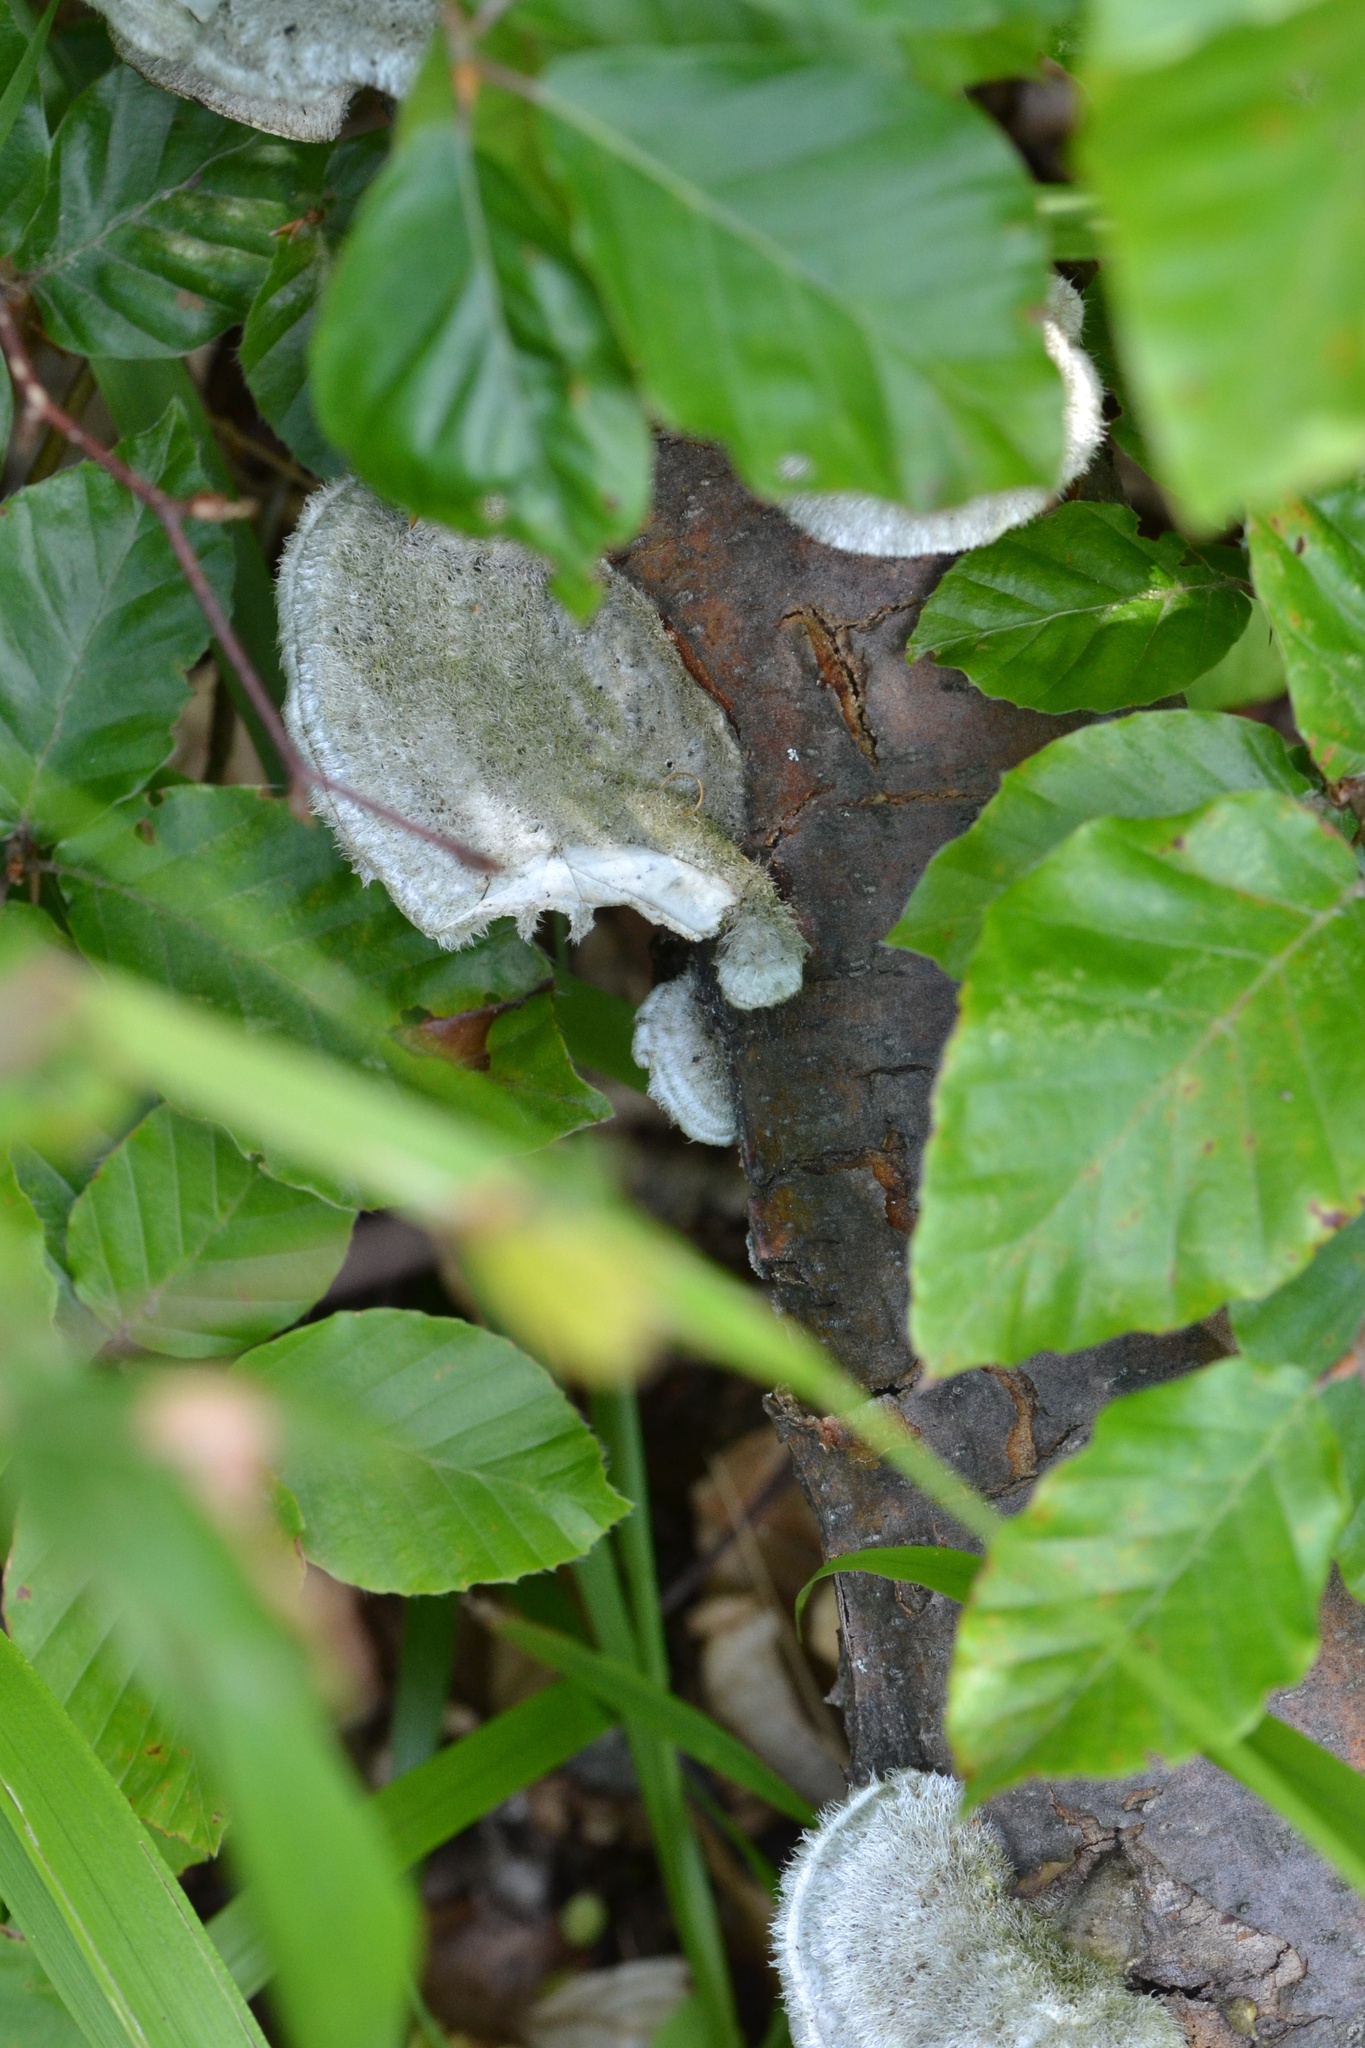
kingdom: Fungi
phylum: Basidiomycota
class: Agaricomycetes
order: Polyporales
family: Polyporaceae
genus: Trametes
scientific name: Trametes hirsuta
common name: Hairy bracket
